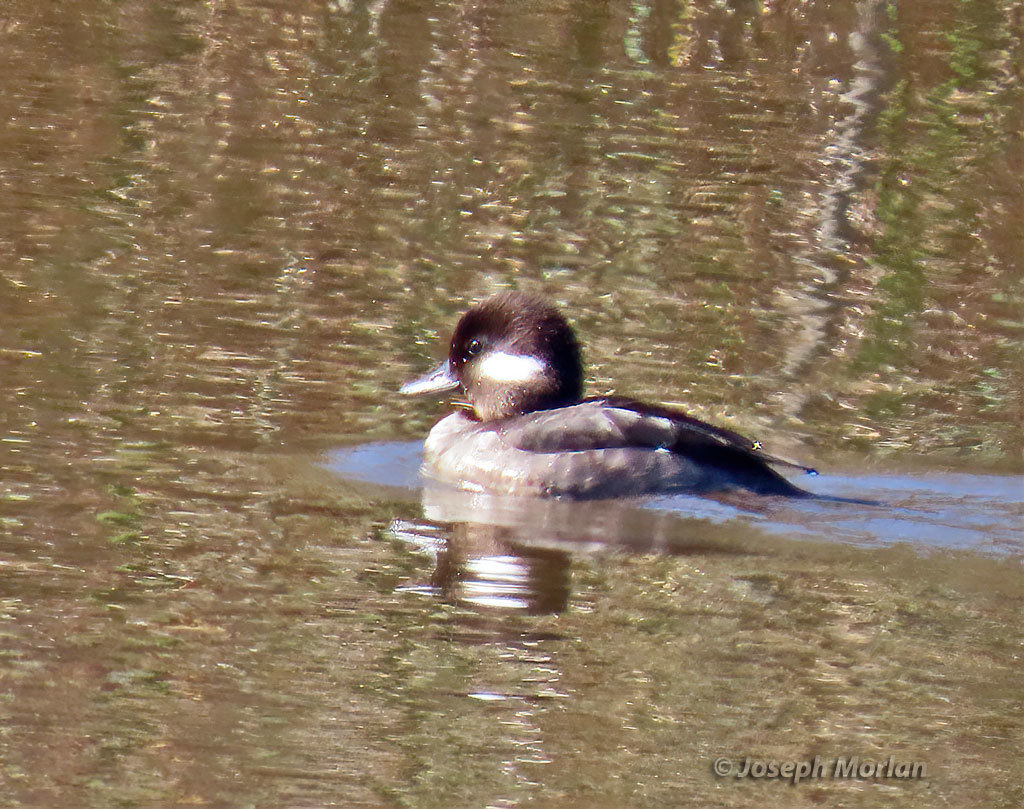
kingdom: Animalia
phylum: Chordata
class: Aves
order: Anseriformes
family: Anatidae
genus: Bucephala
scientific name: Bucephala albeola
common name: Bufflehead
